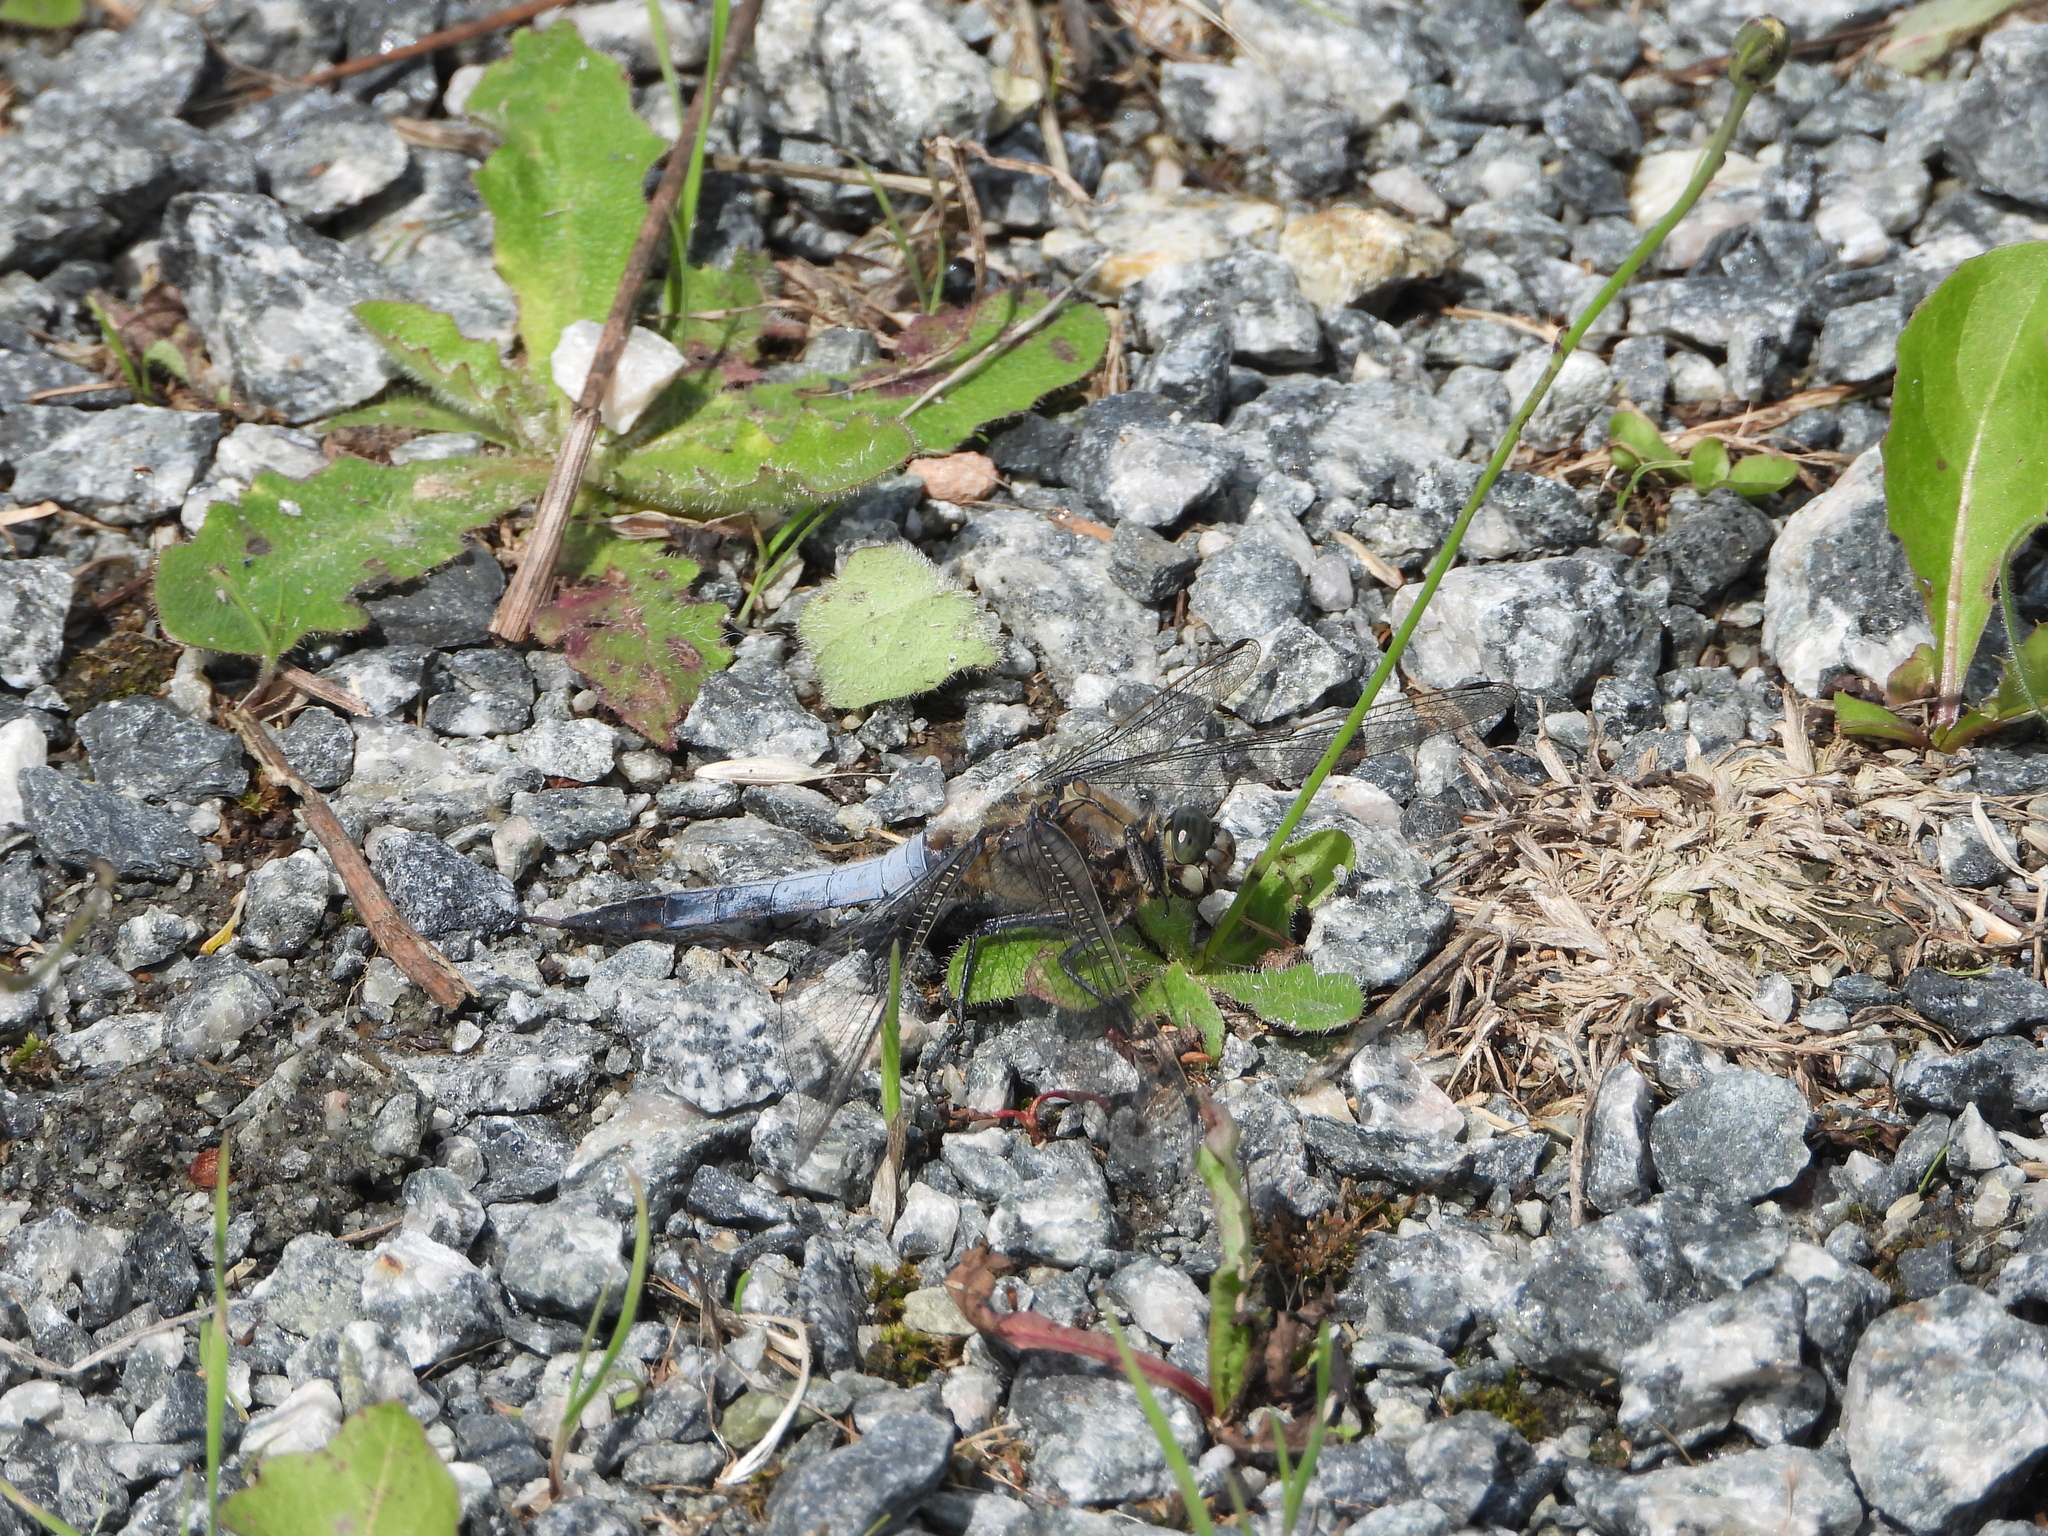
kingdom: Animalia
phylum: Arthropoda
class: Insecta
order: Odonata
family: Libellulidae
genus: Orthetrum
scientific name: Orthetrum cancellatum
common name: Black-tailed skimmer
